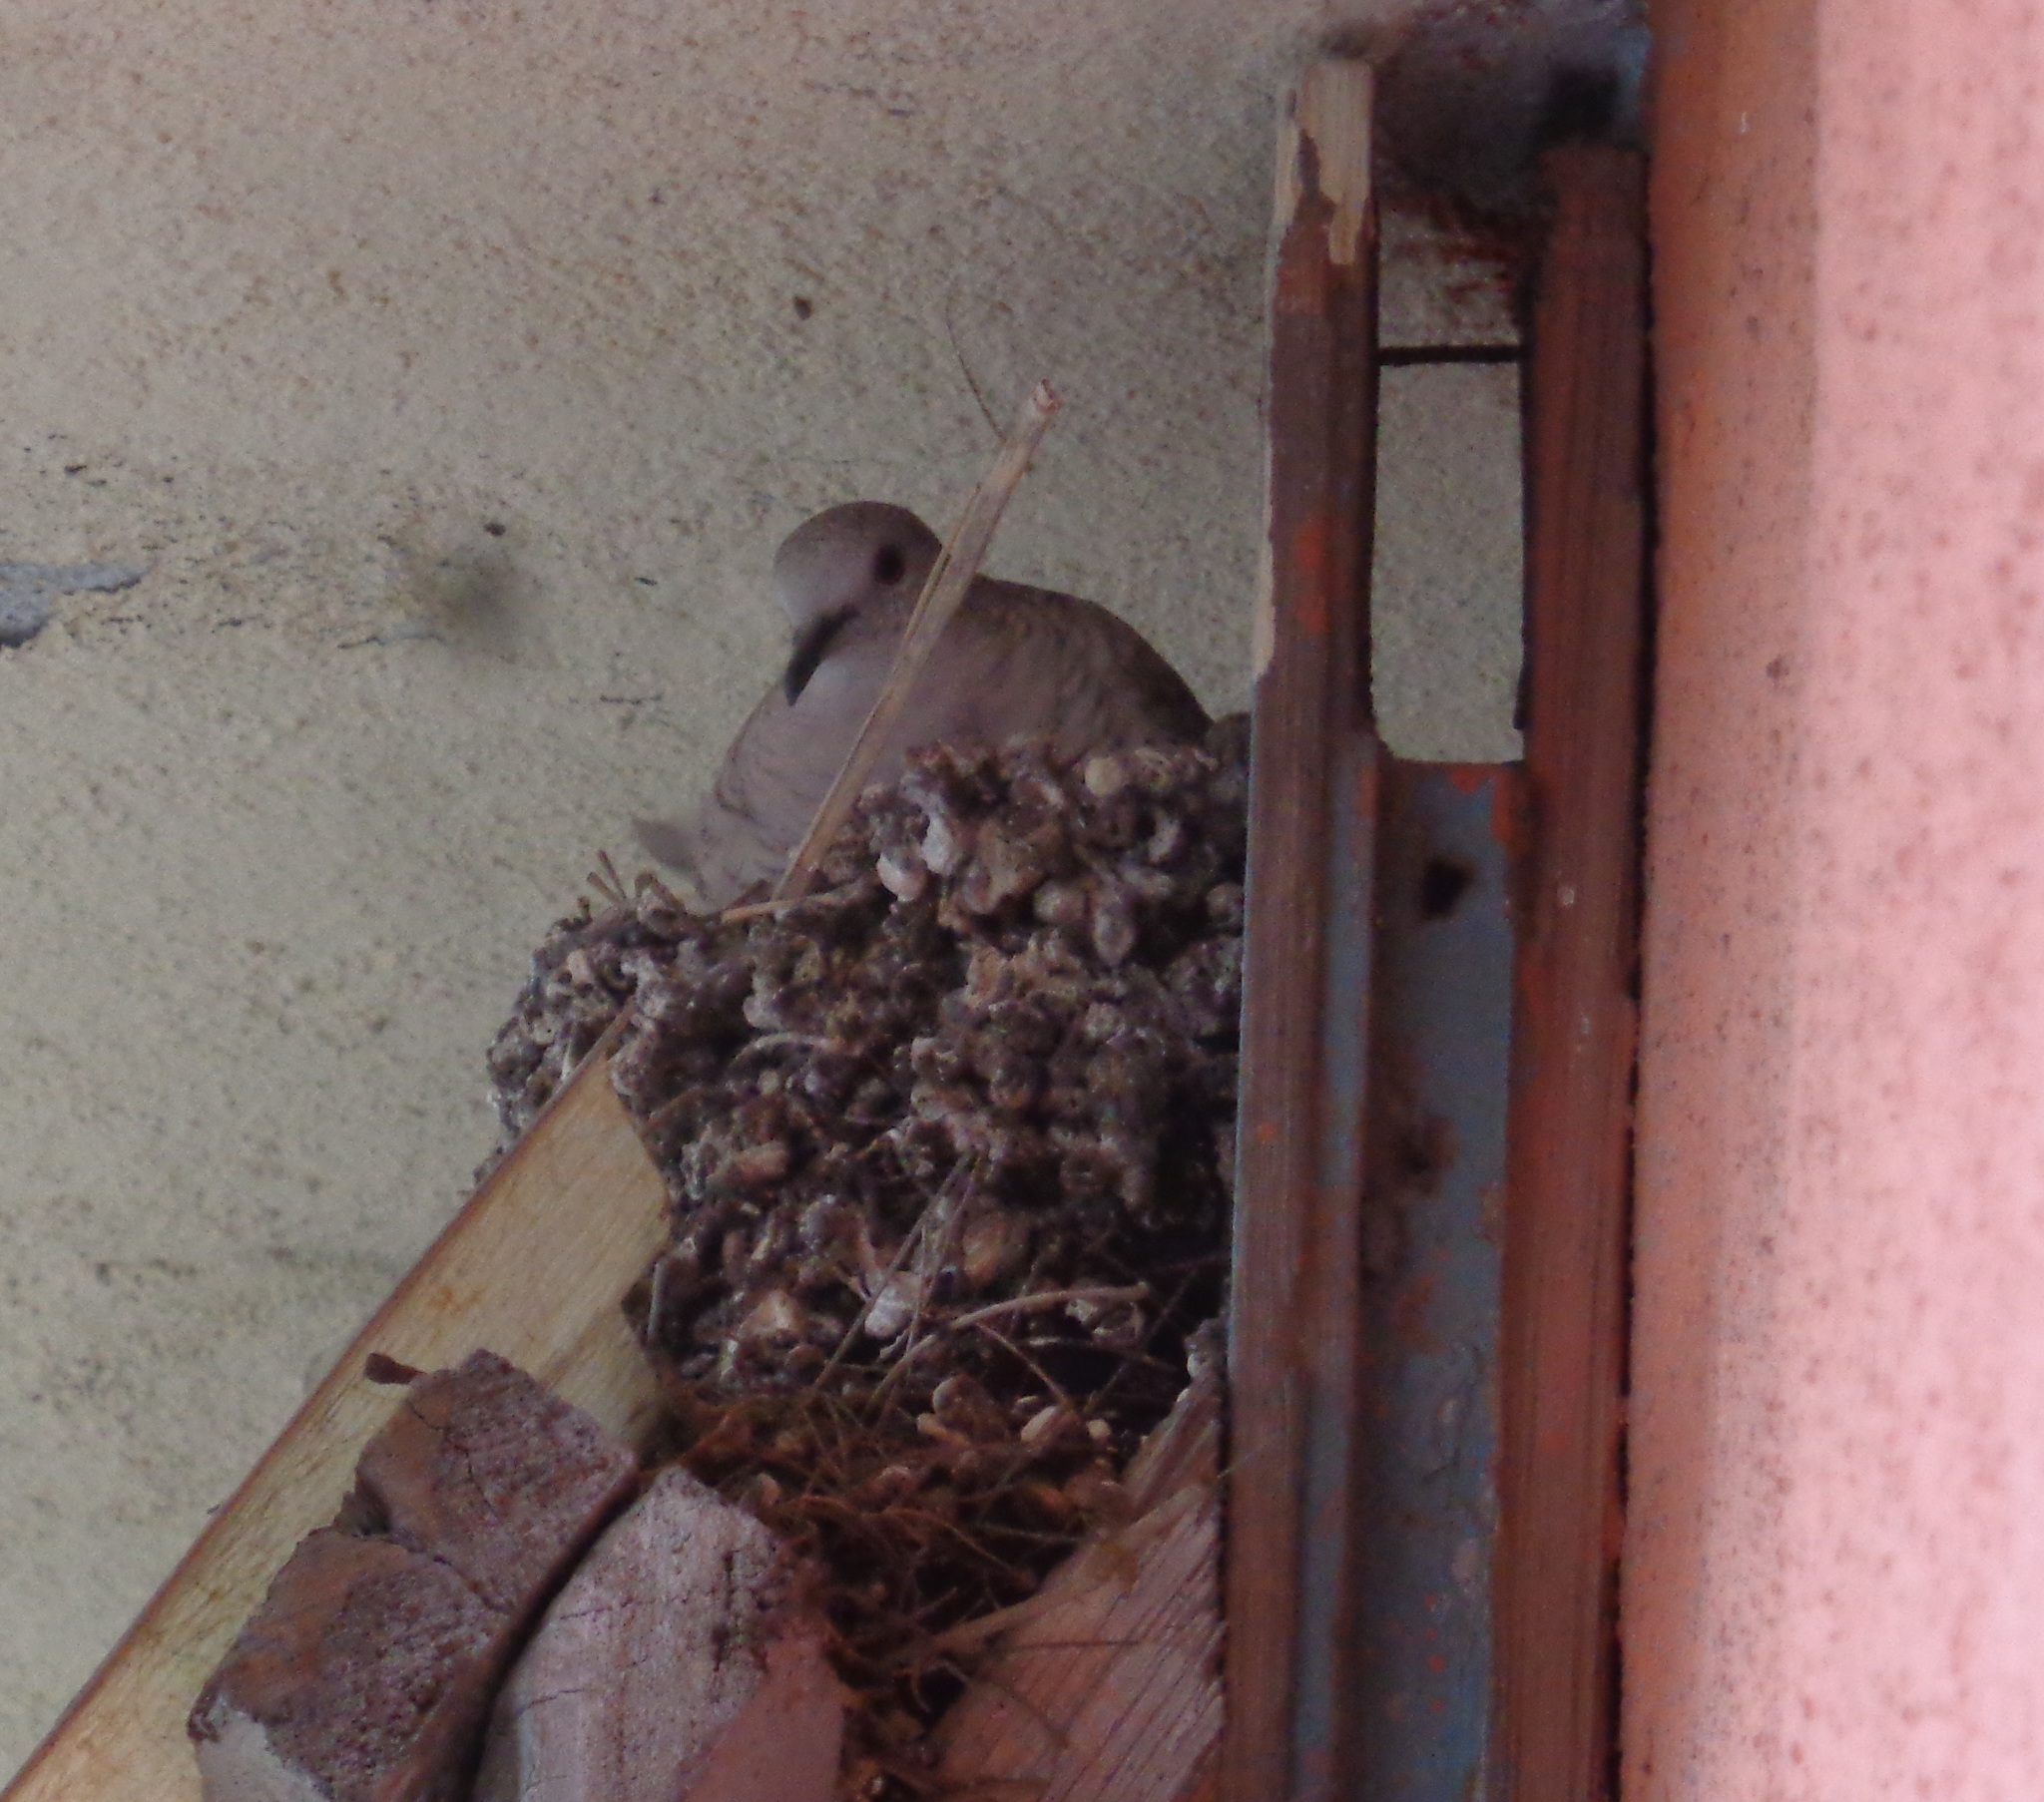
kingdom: Animalia
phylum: Chordata
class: Aves
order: Columbiformes
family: Columbidae
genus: Columbina
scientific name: Columbina inca
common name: Inca dove
